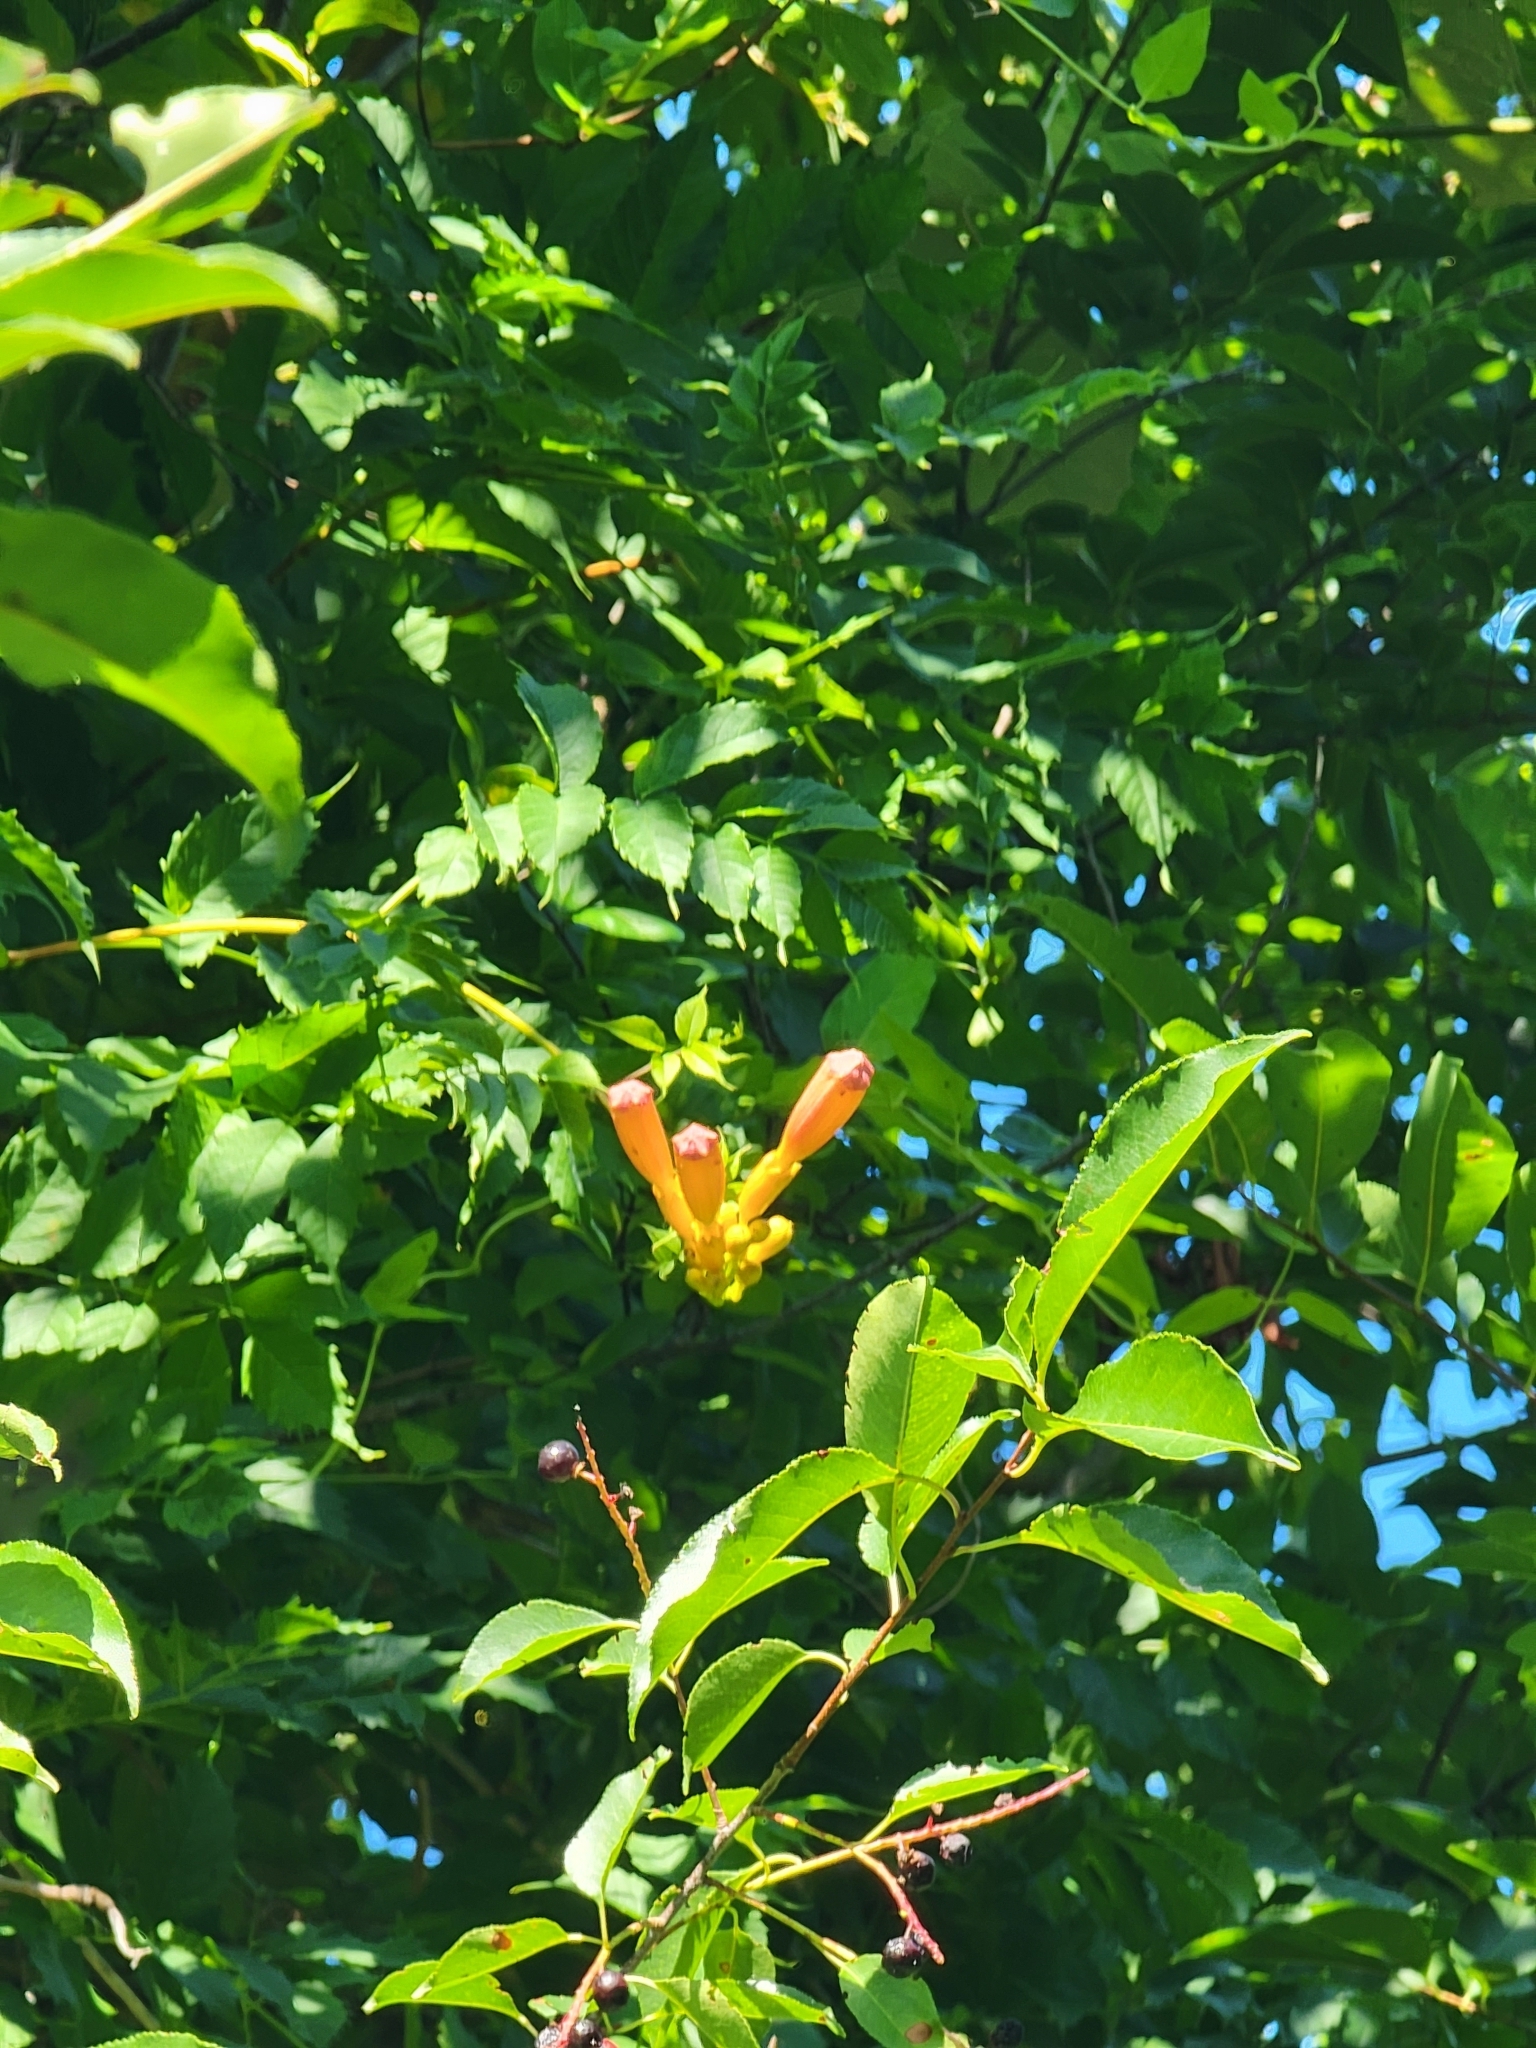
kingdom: Plantae
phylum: Tracheophyta
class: Magnoliopsida
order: Lamiales
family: Bignoniaceae
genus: Campsis
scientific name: Campsis radicans
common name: Trumpet-creeper
